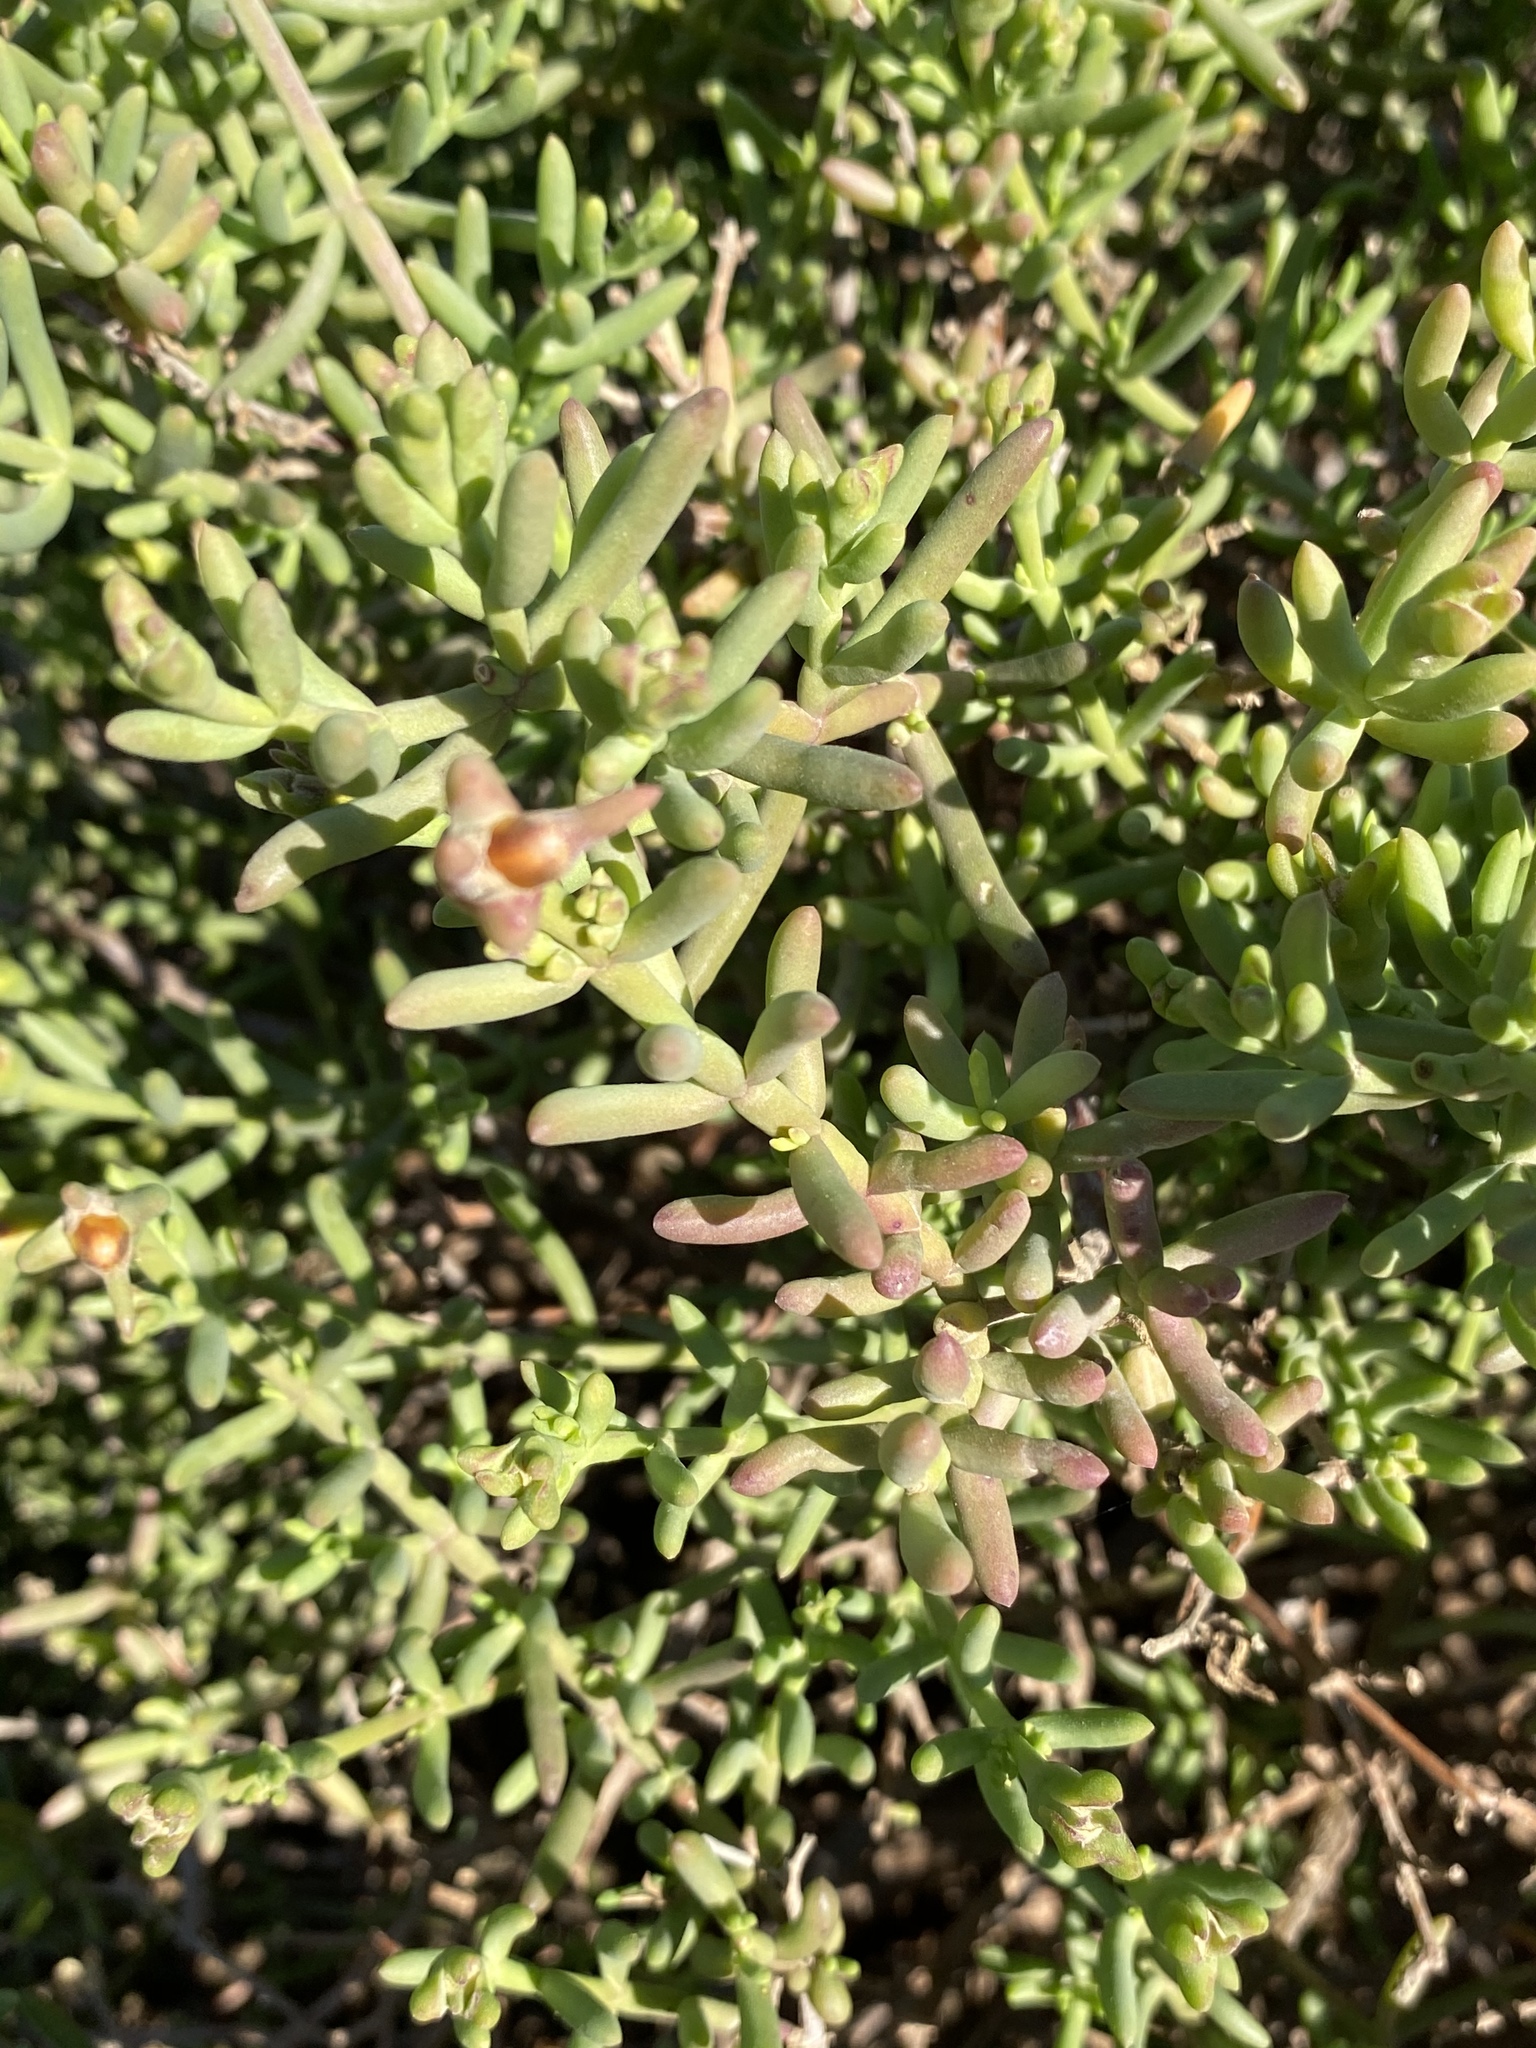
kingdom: Plantae
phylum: Tracheophyta
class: Magnoliopsida
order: Caryophyllales
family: Aizoaceae
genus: Mesembryanthemum
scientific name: Mesembryanthemum splendens
